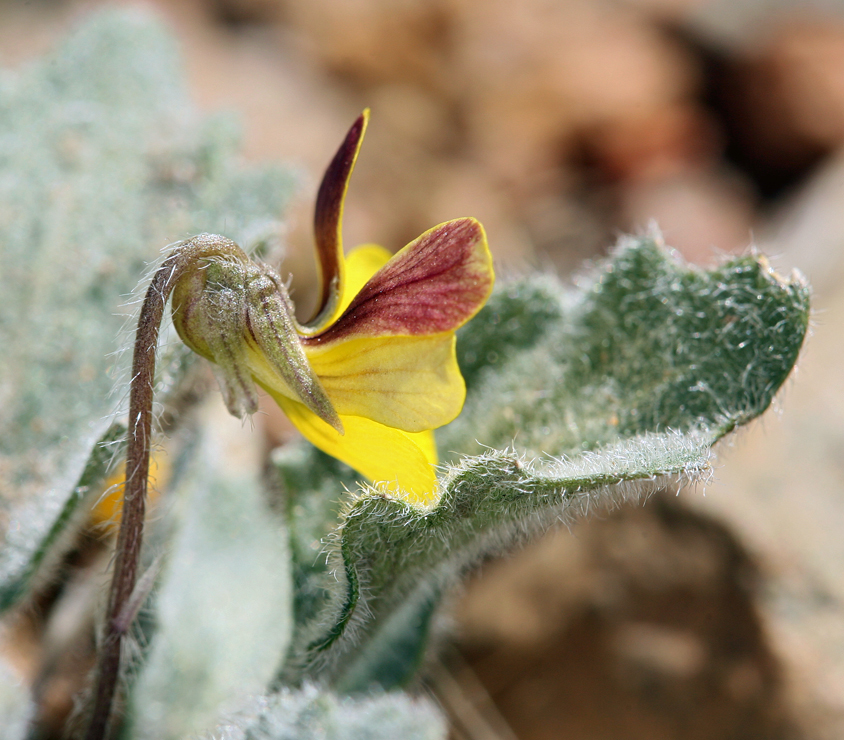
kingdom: Plantae
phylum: Tracheophyta
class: Magnoliopsida
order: Malpighiales
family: Violaceae
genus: Viola
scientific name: Viola aurea
